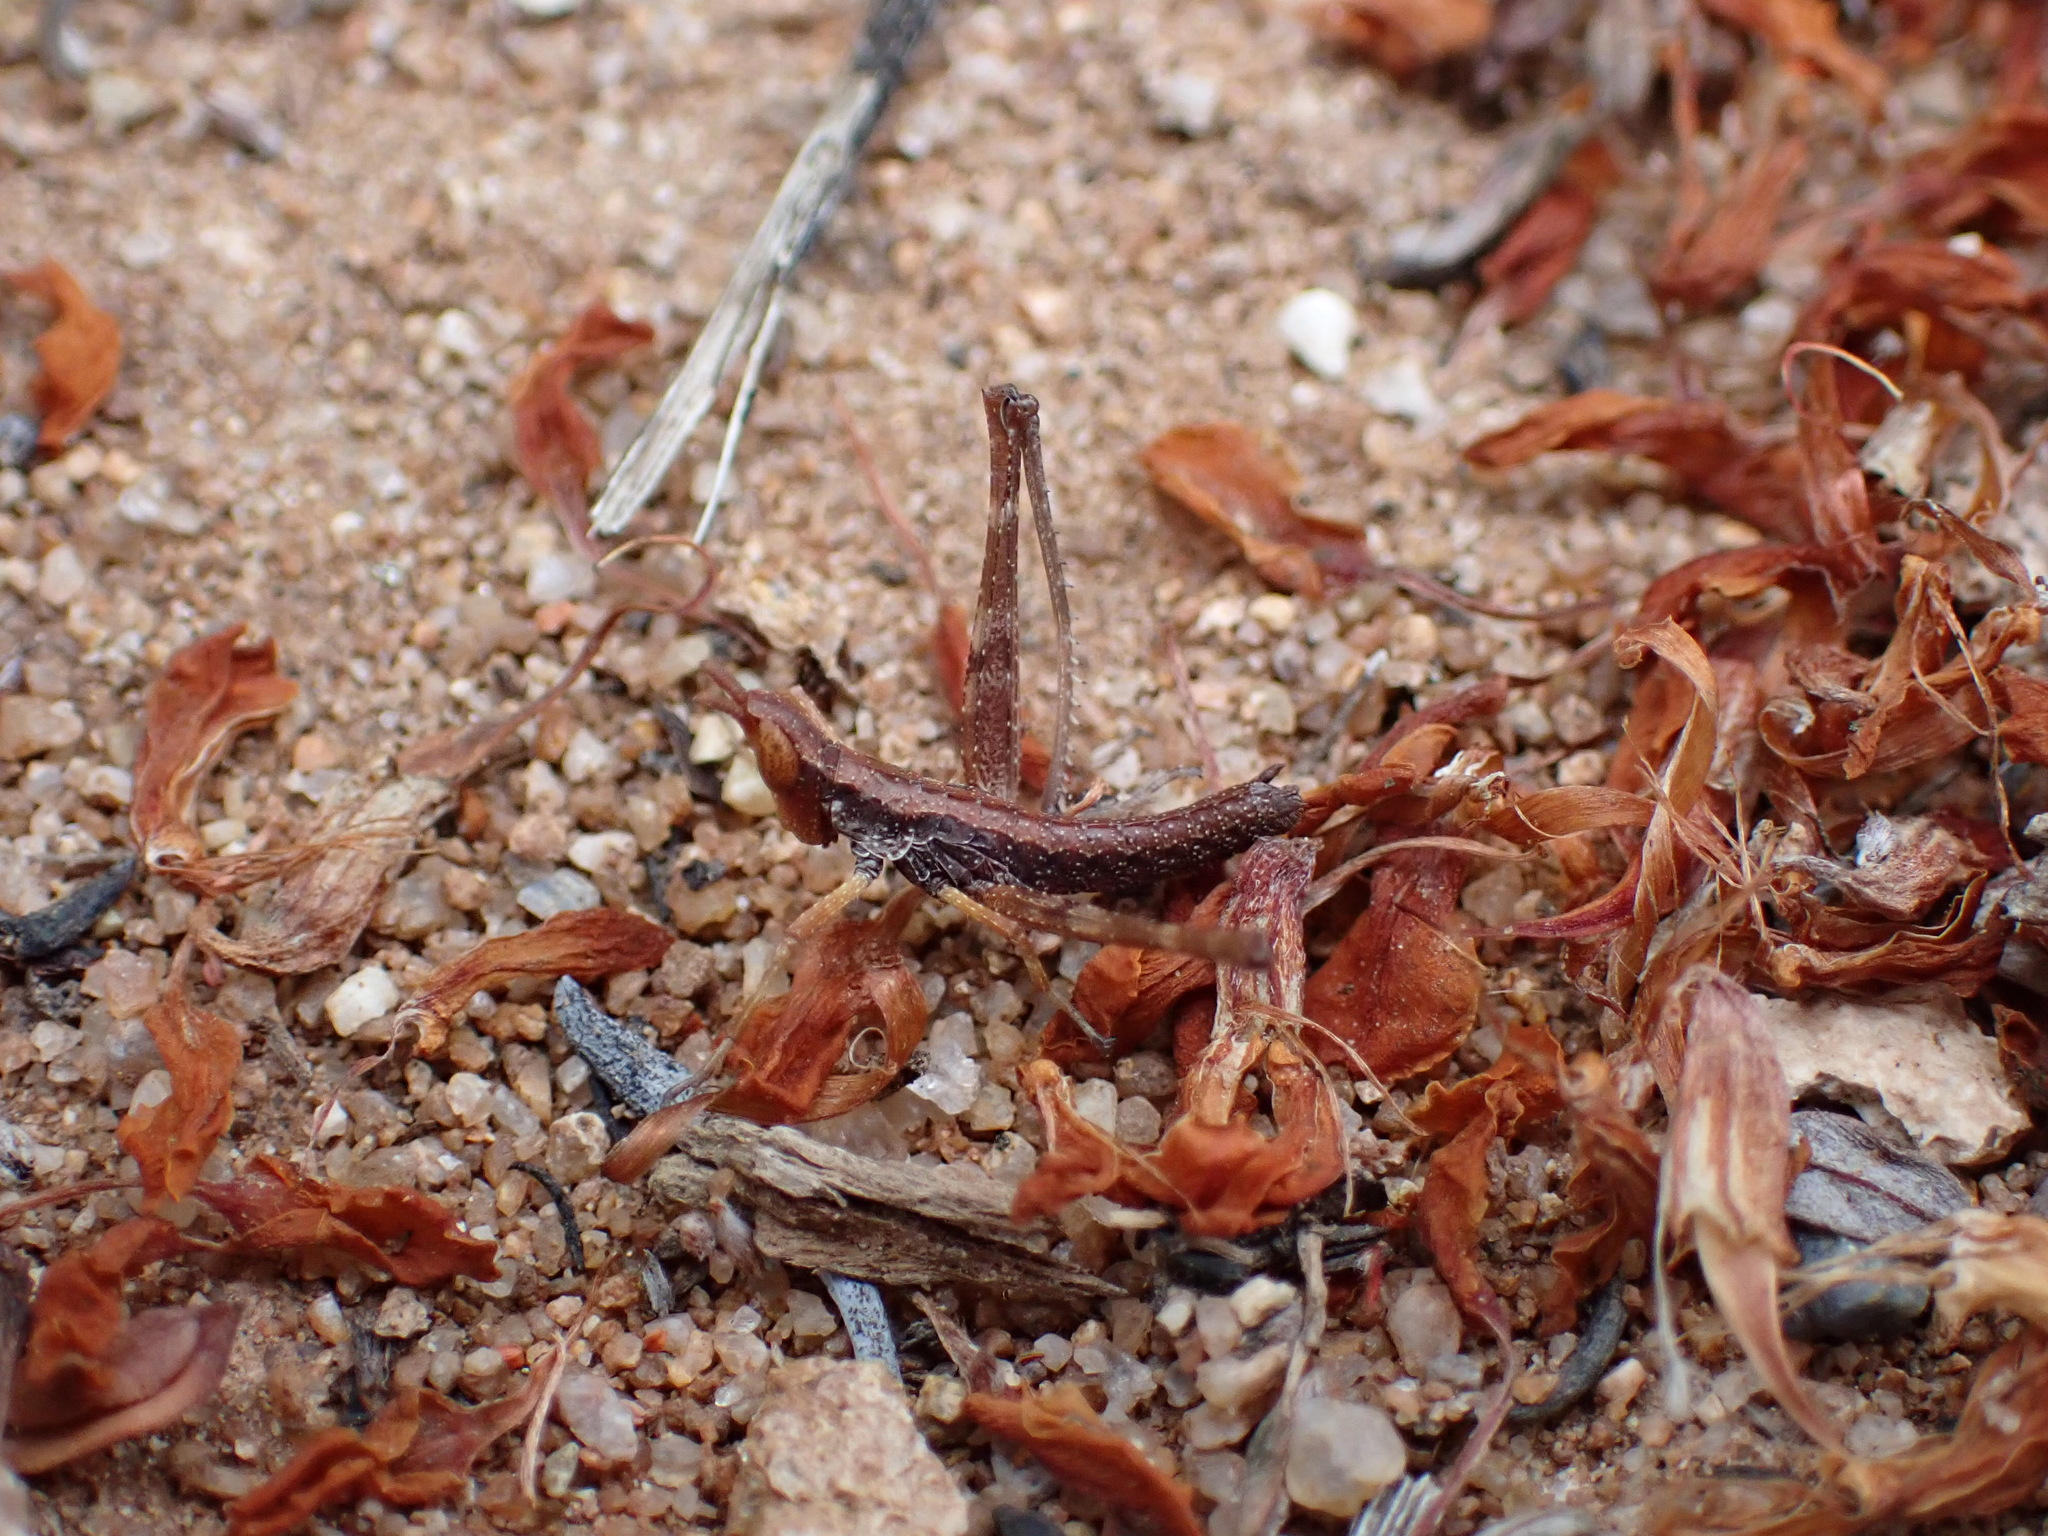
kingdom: Animalia
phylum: Arthropoda
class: Insecta
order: Orthoptera
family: Eumastacidae
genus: Morsea
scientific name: Morsea californica
